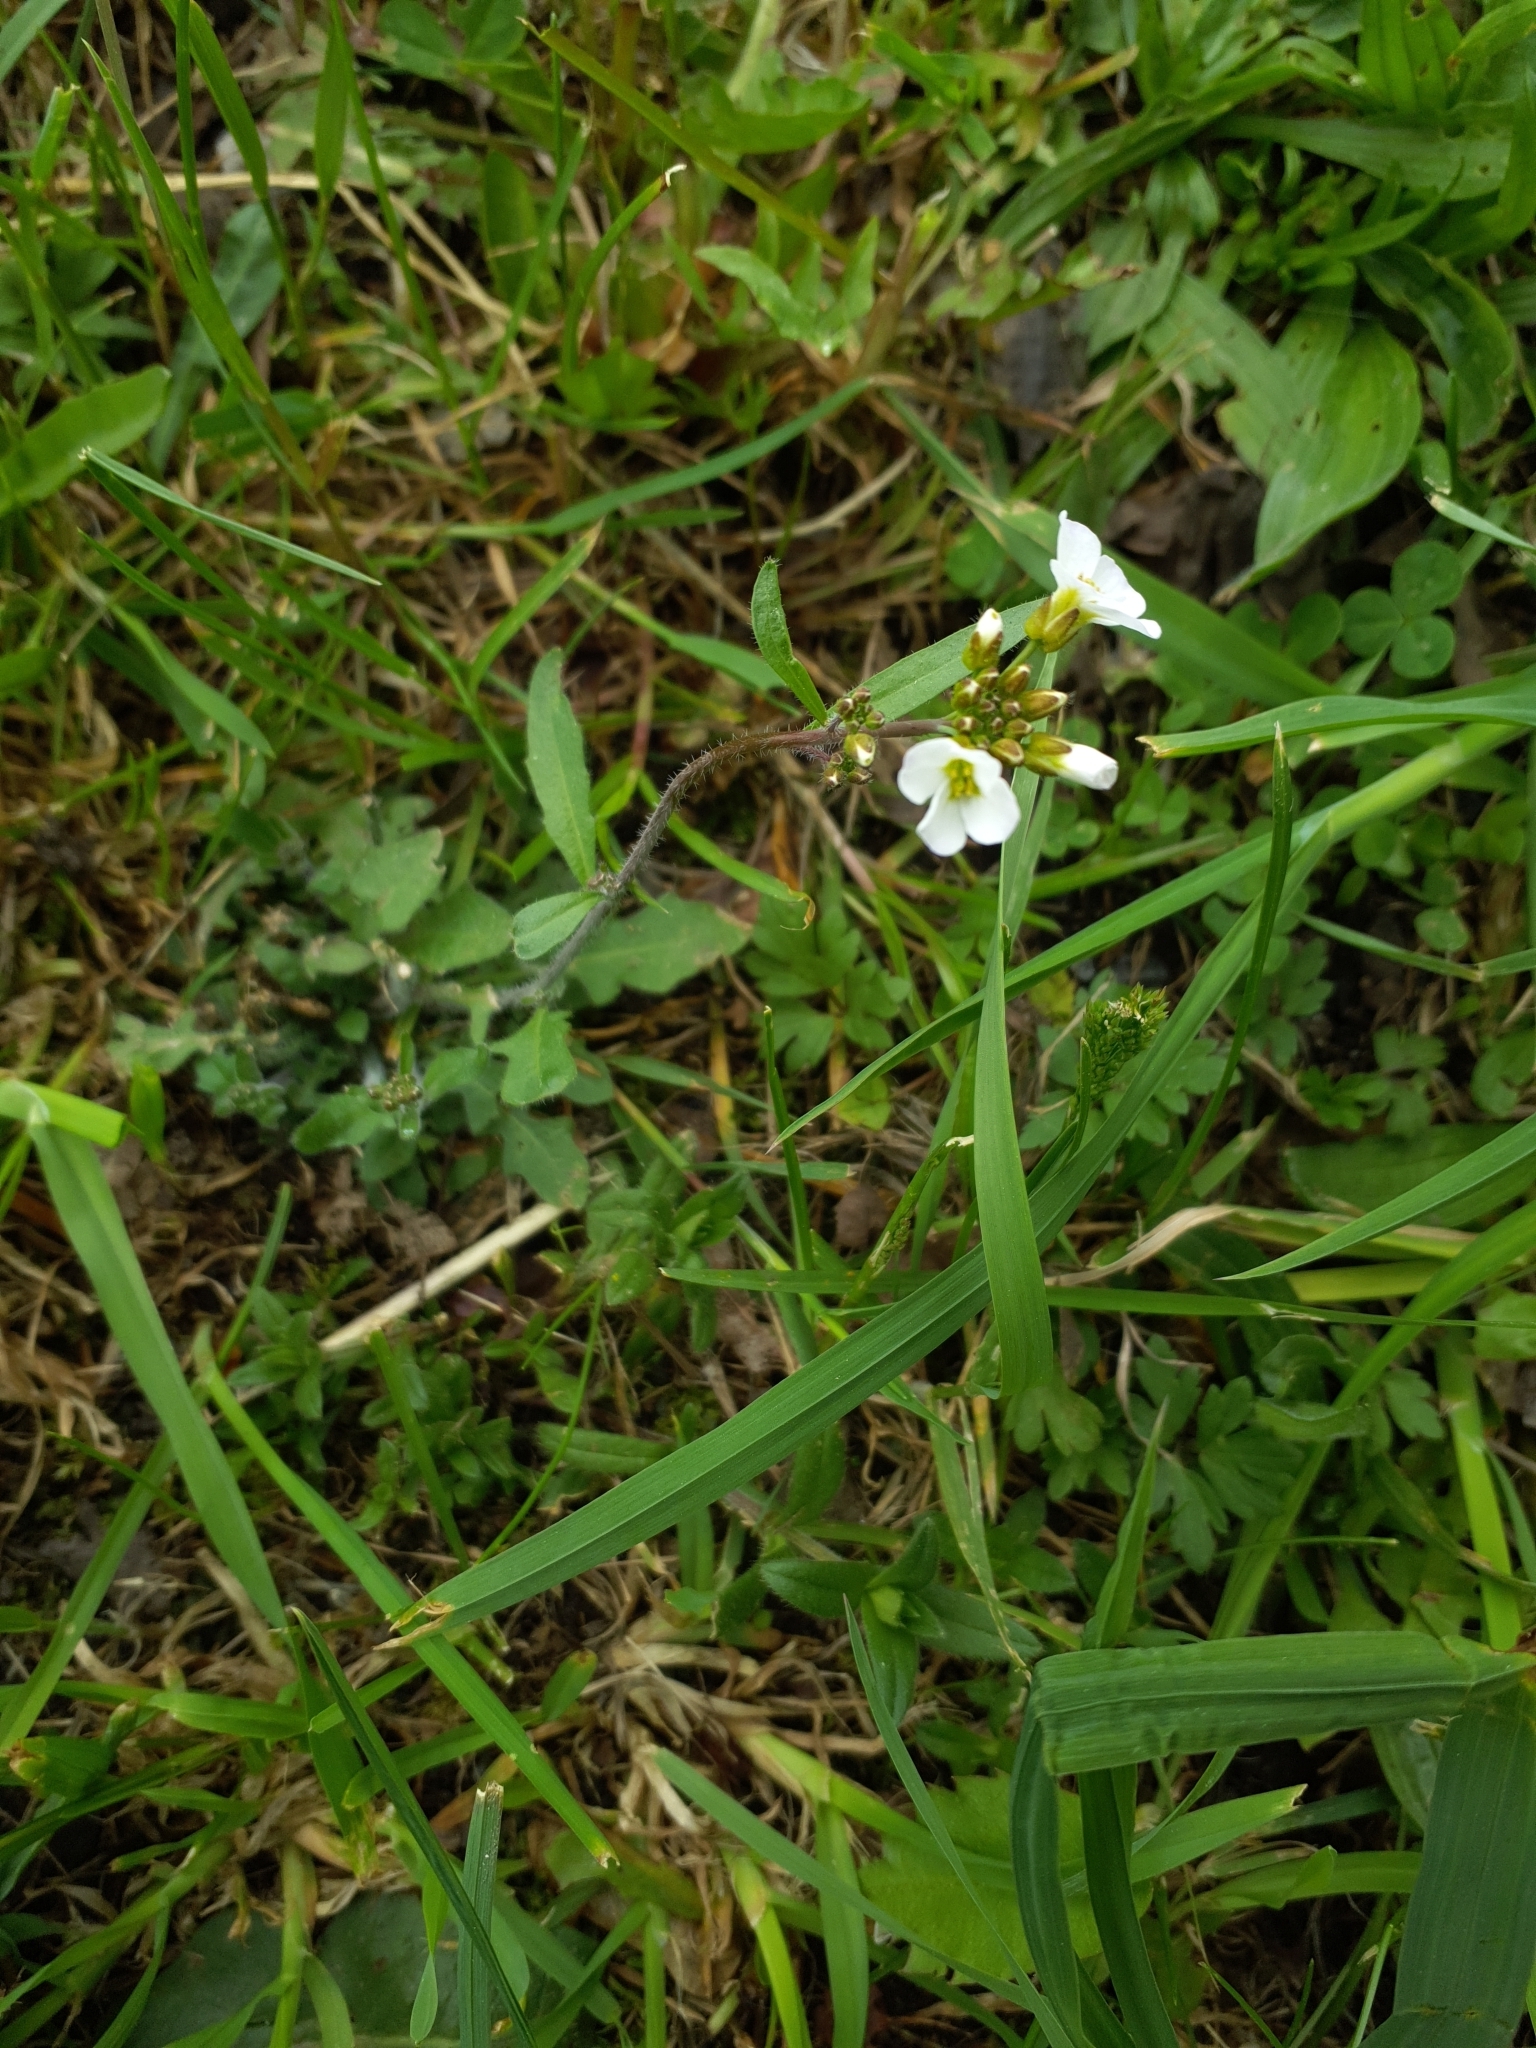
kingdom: Plantae
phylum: Tracheophyta
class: Magnoliopsida
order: Brassicales
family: Brassicaceae
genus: Arabidopsis
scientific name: Arabidopsis arenosa
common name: Sand rock-cress
